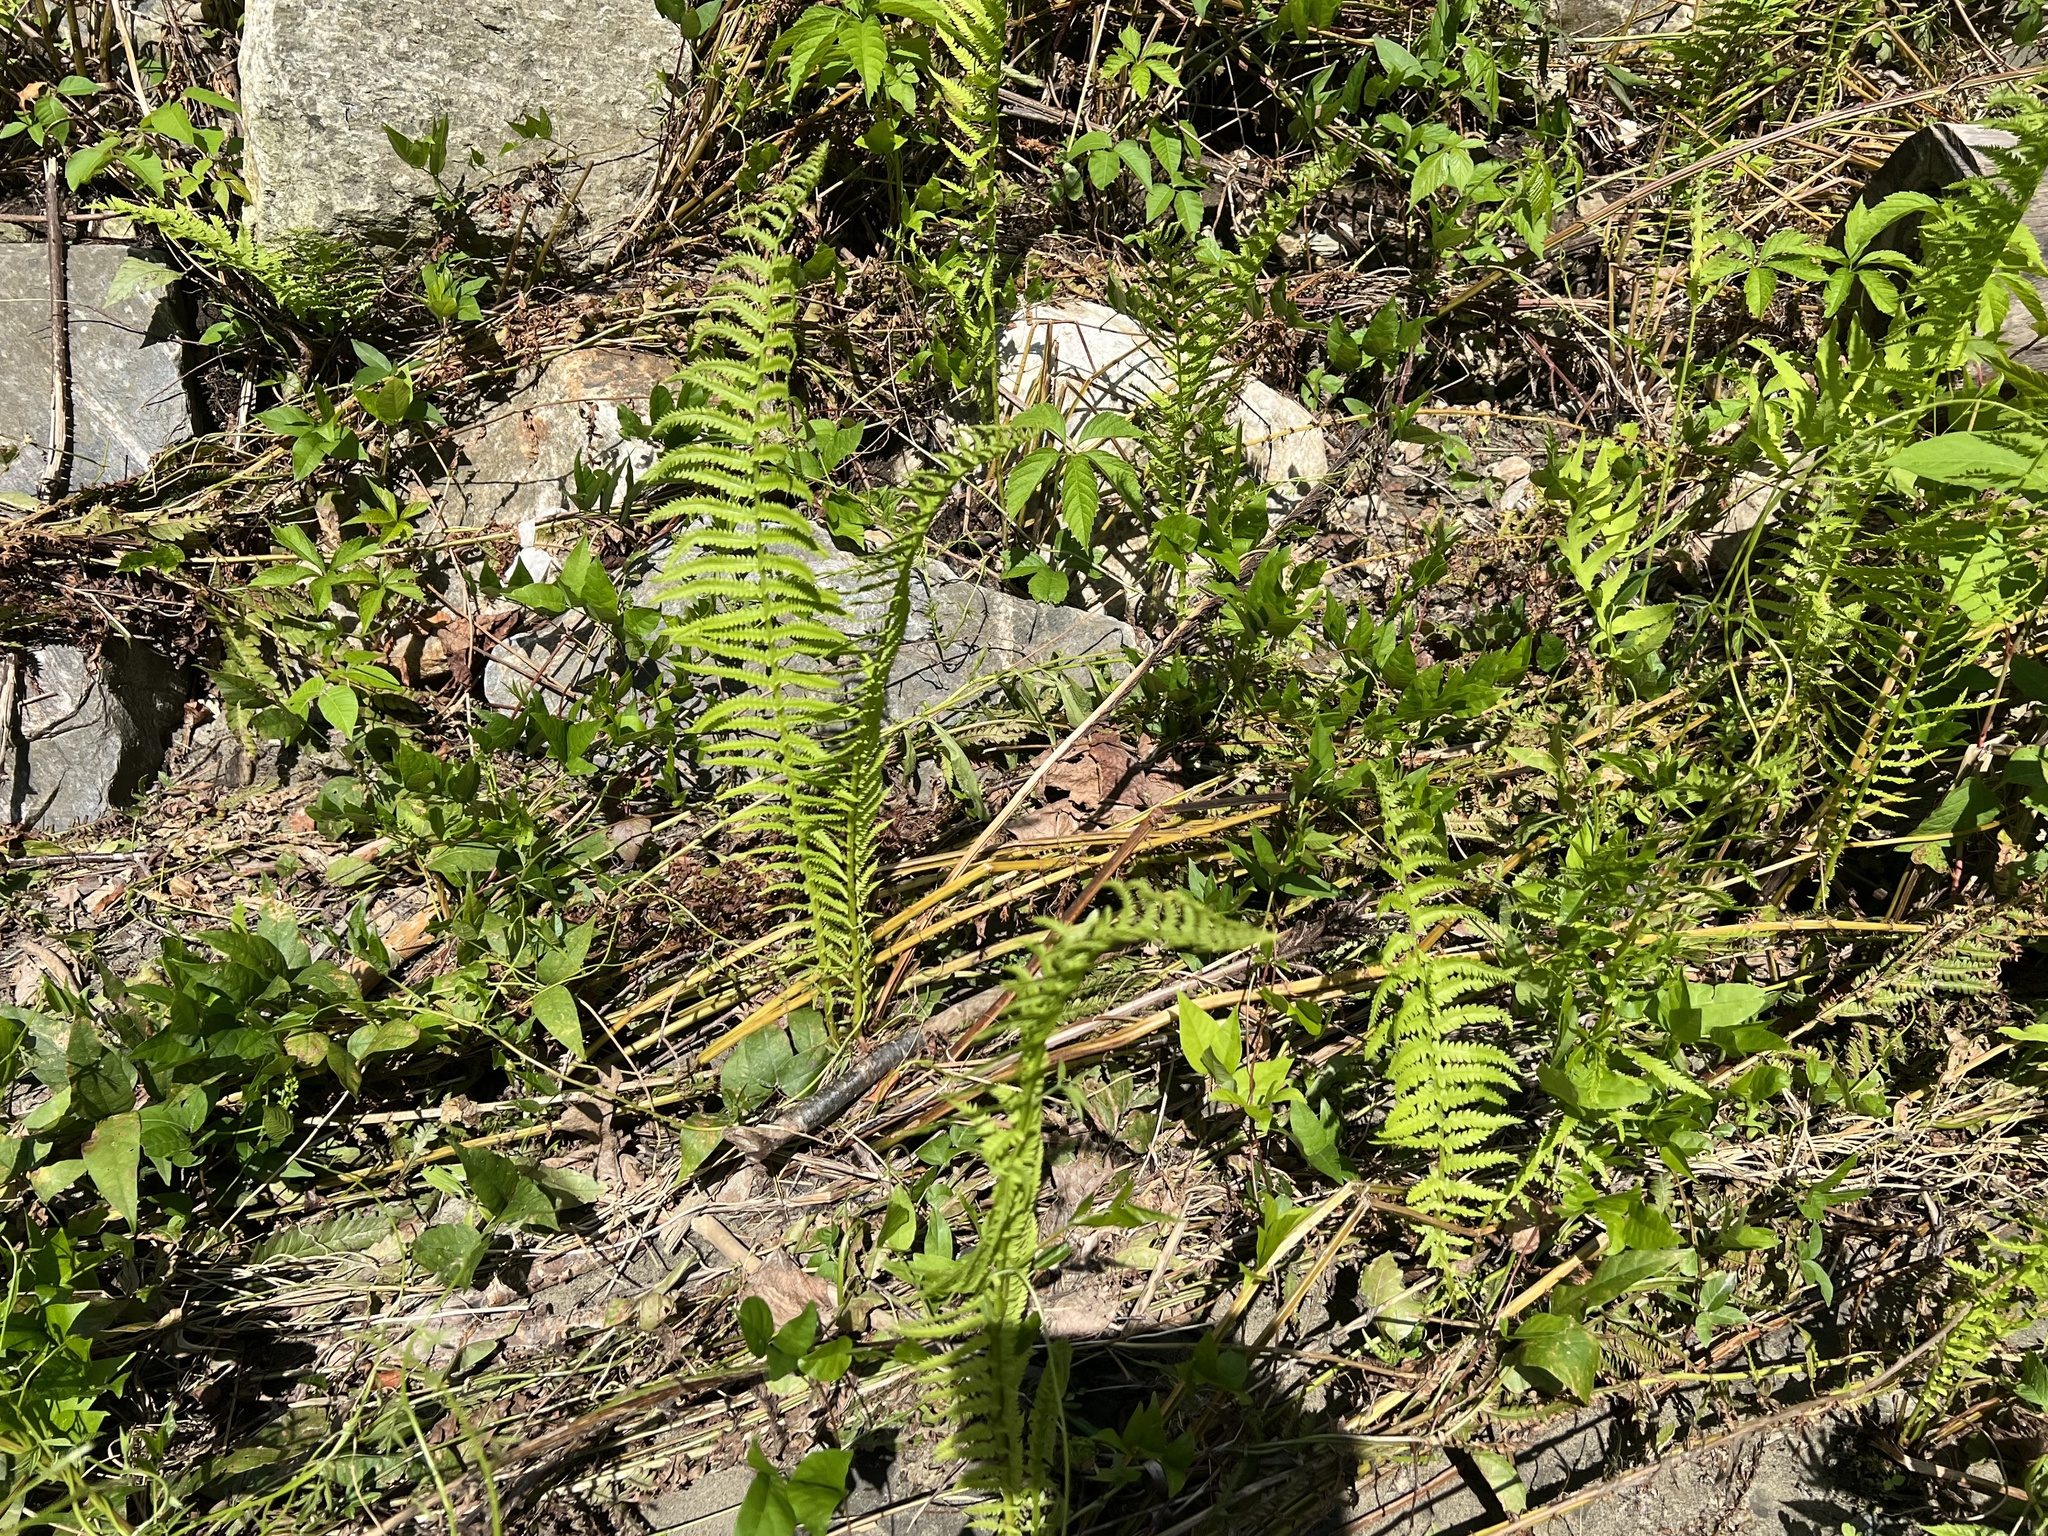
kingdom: Plantae
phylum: Tracheophyta
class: Polypodiopsida
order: Polypodiales
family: Onocleaceae
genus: Matteuccia
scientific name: Matteuccia struthiopteris
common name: Ostrich fern
